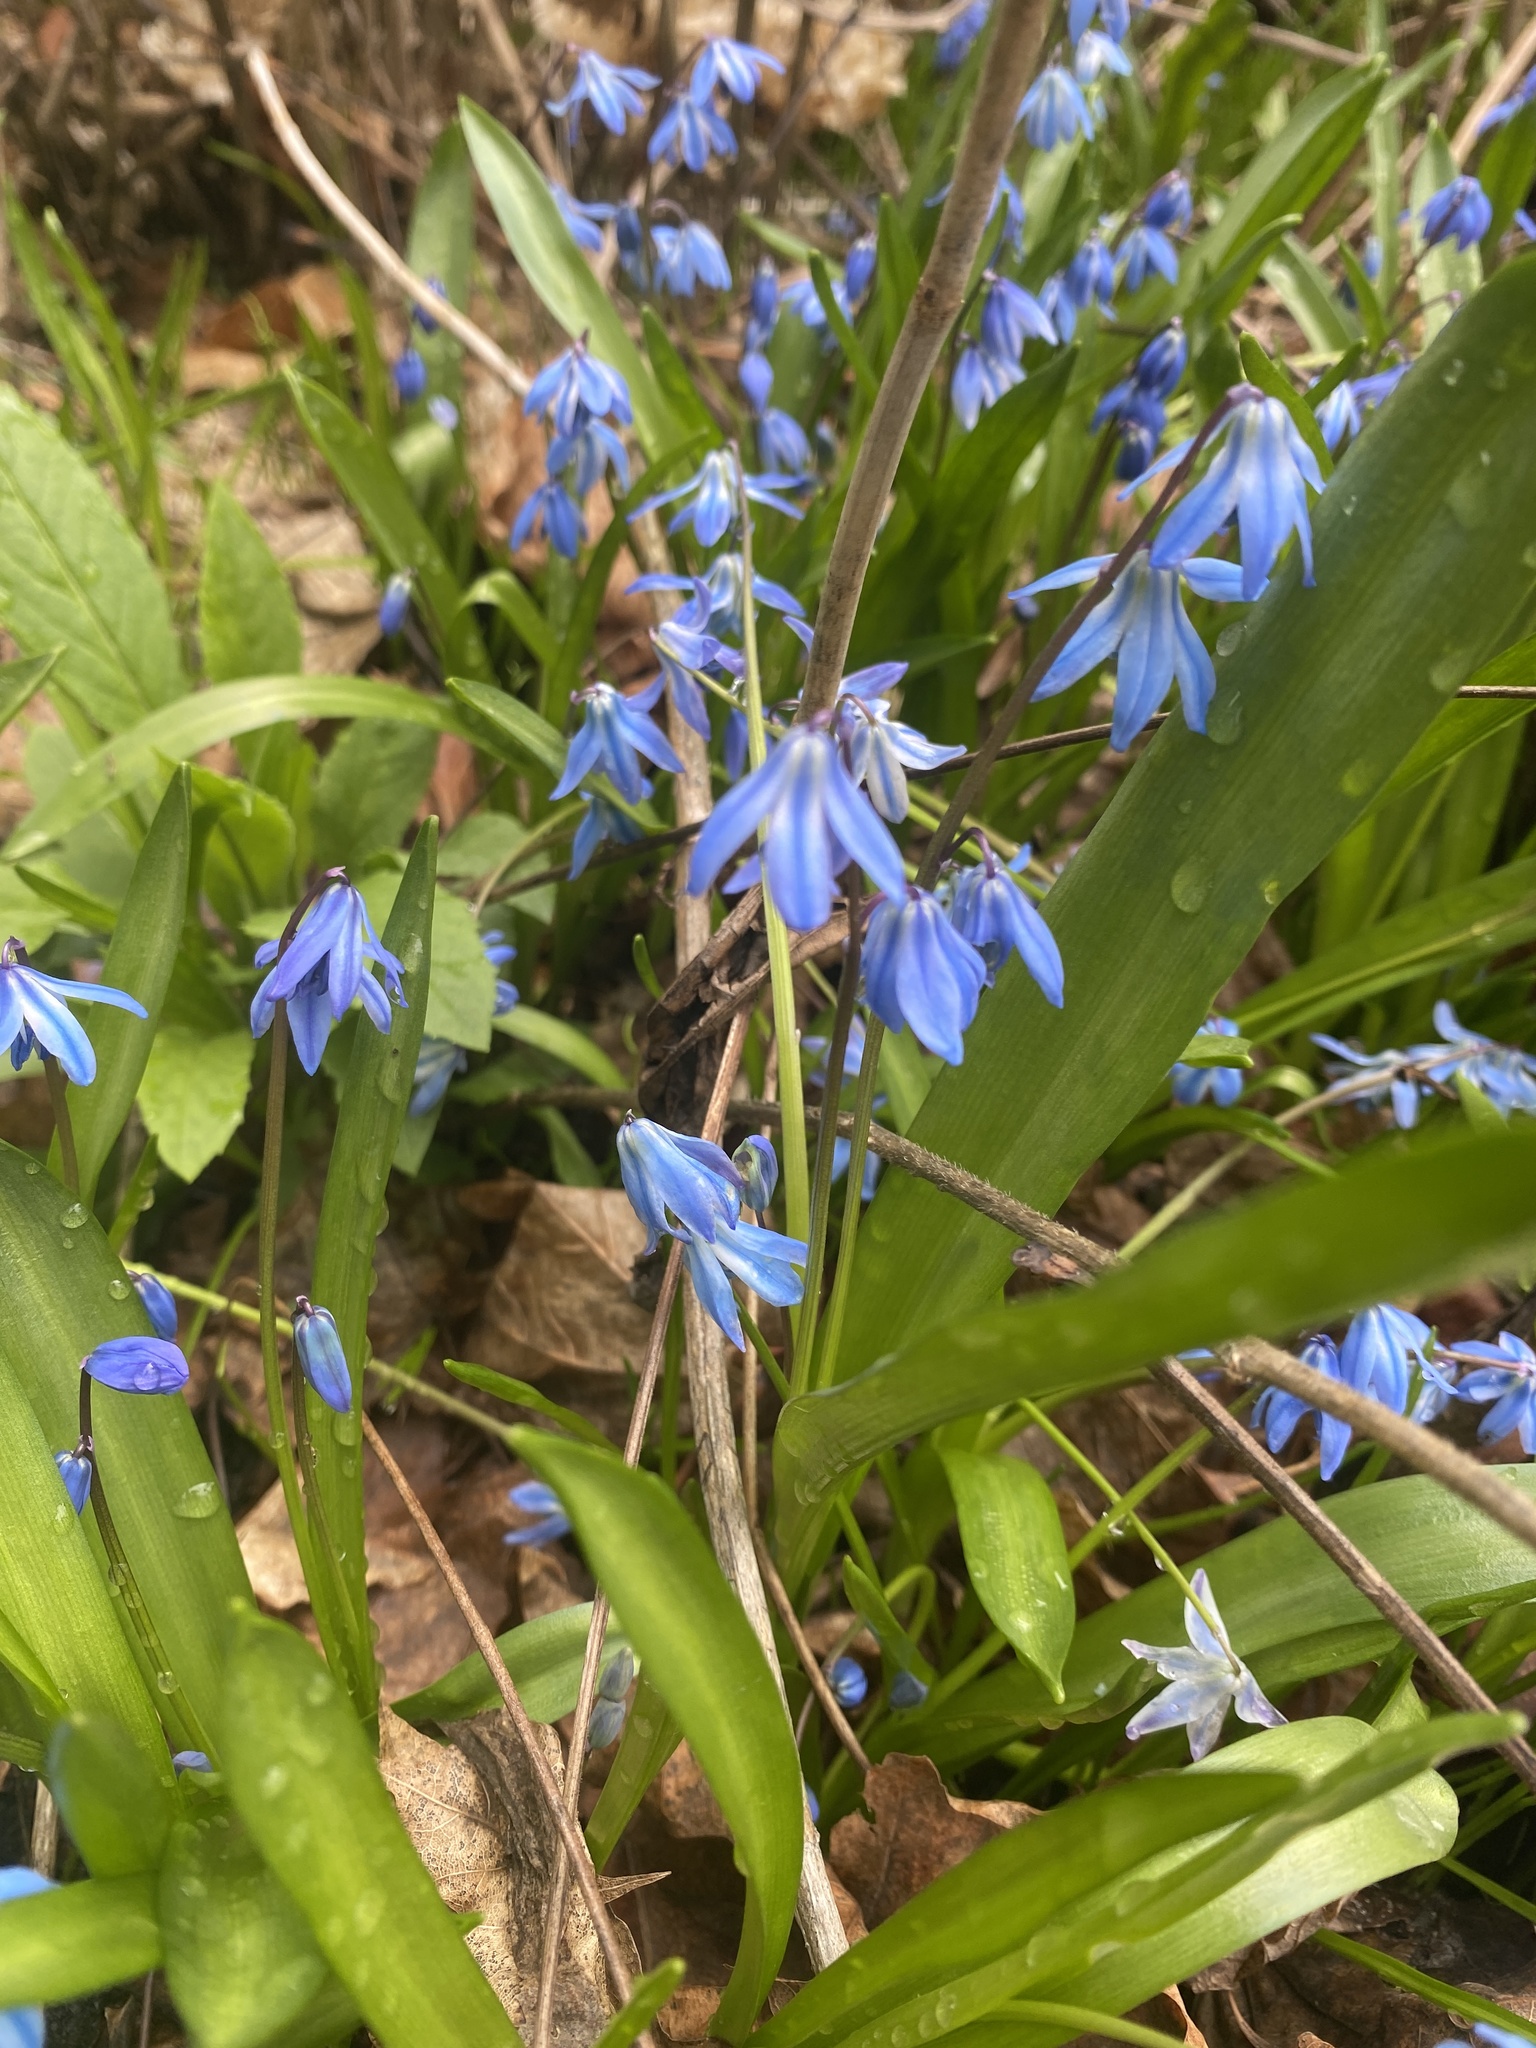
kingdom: Plantae
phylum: Tracheophyta
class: Liliopsida
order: Asparagales
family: Asparagaceae
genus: Scilla
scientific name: Scilla siberica
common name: Siberian squill
